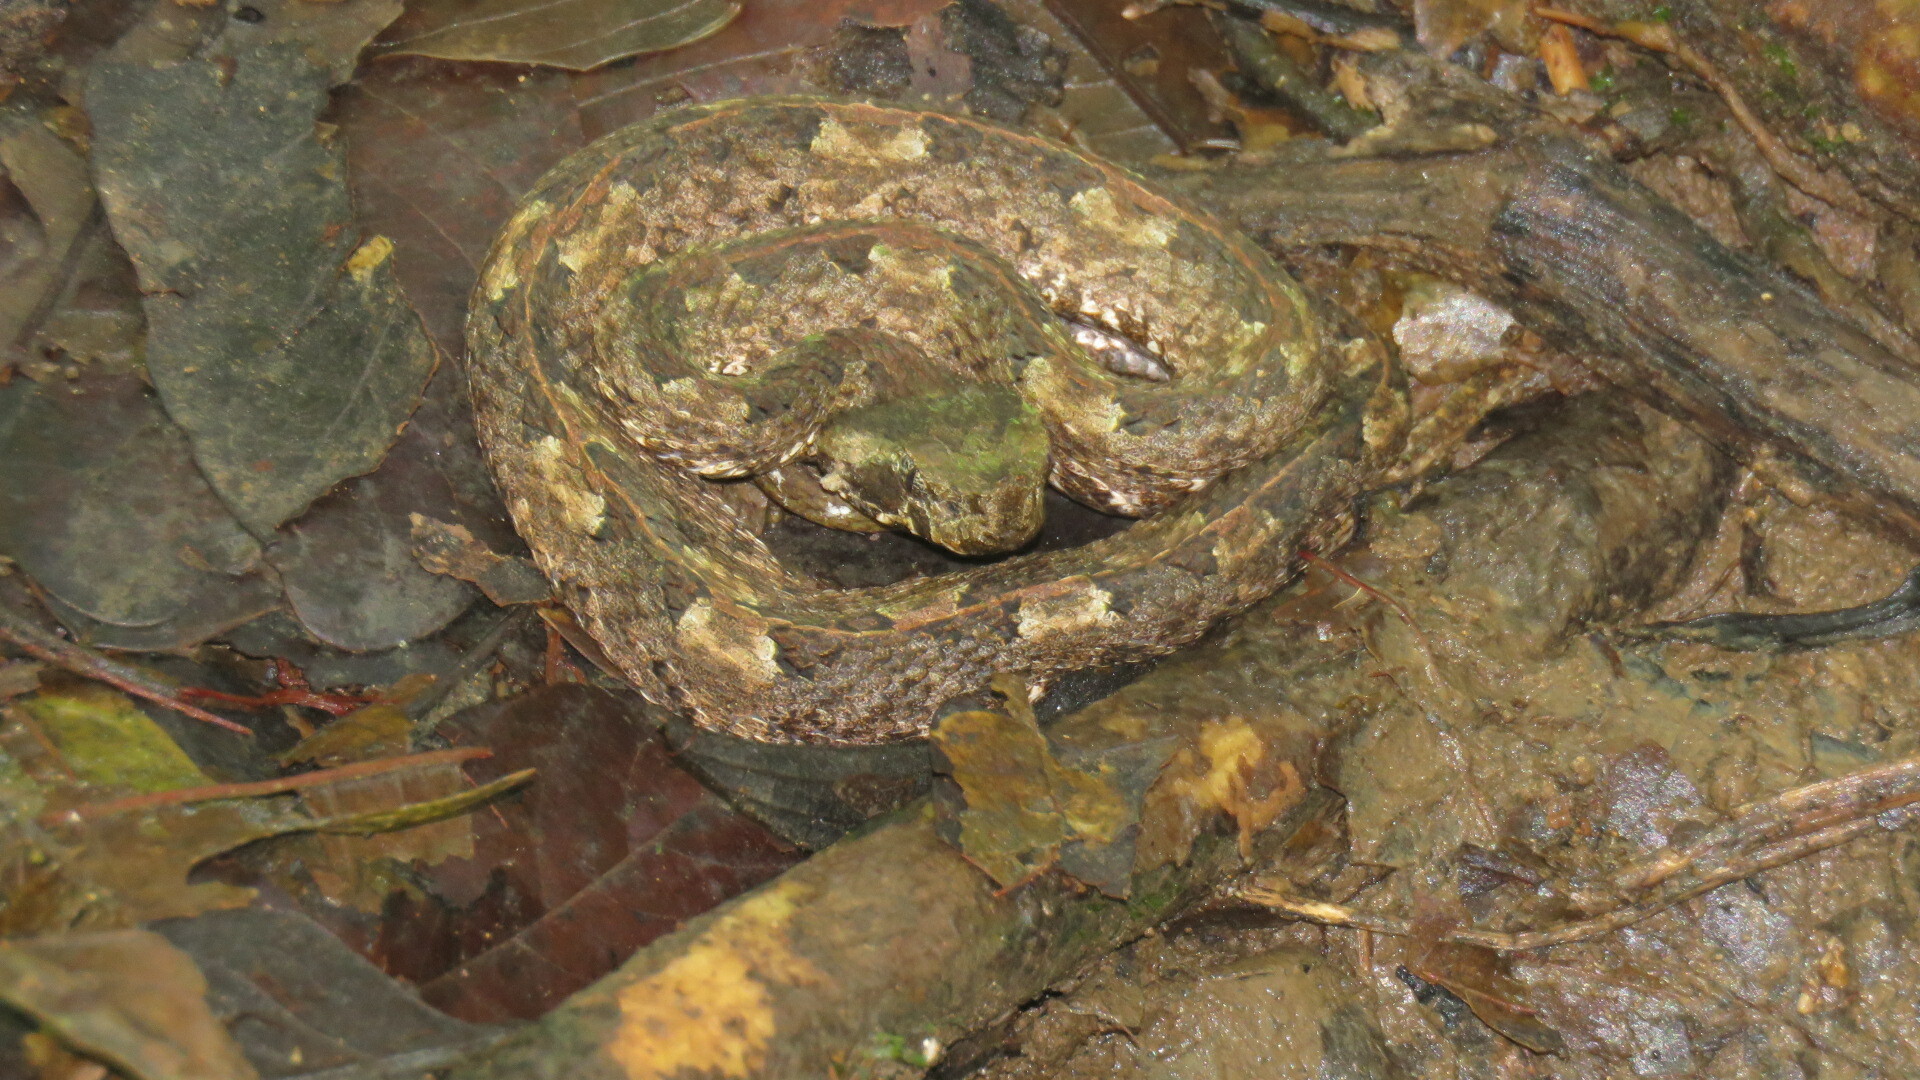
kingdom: Animalia
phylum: Chordata
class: Squamata
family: Viperidae
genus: Porthidium
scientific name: Porthidium nasutum
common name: Hognosed pit viper
